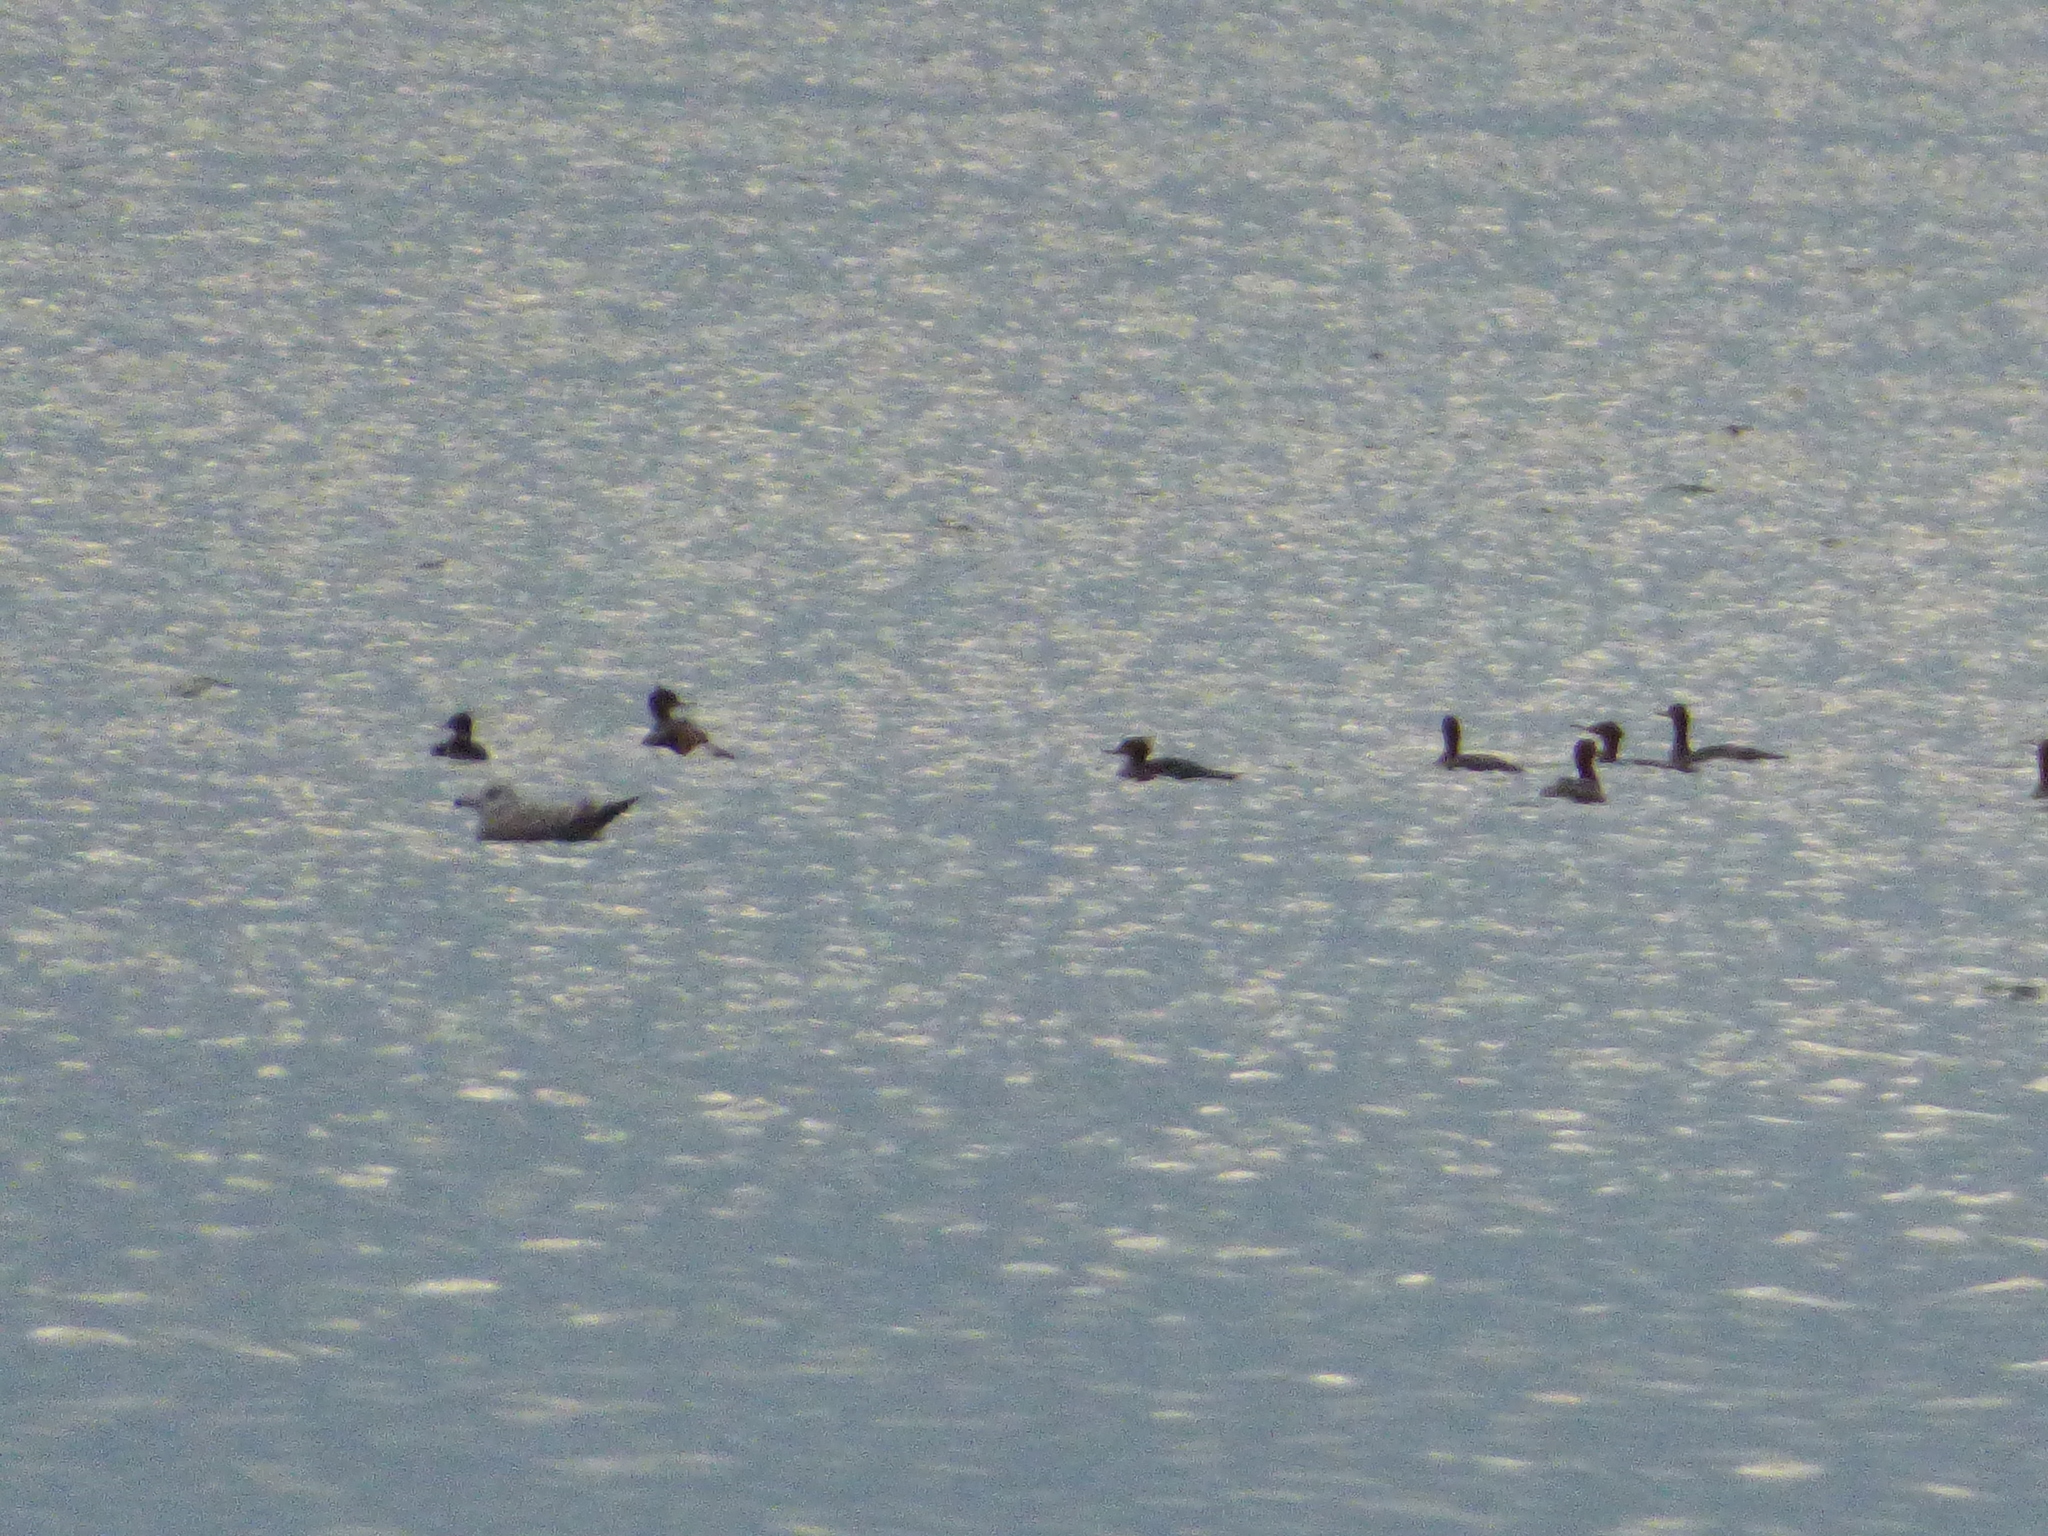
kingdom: Animalia
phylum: Chordata
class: Aves
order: Anseriformes
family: Anatidae
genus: Mergus
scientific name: Mergus serrator
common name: Red-breasted merganser
